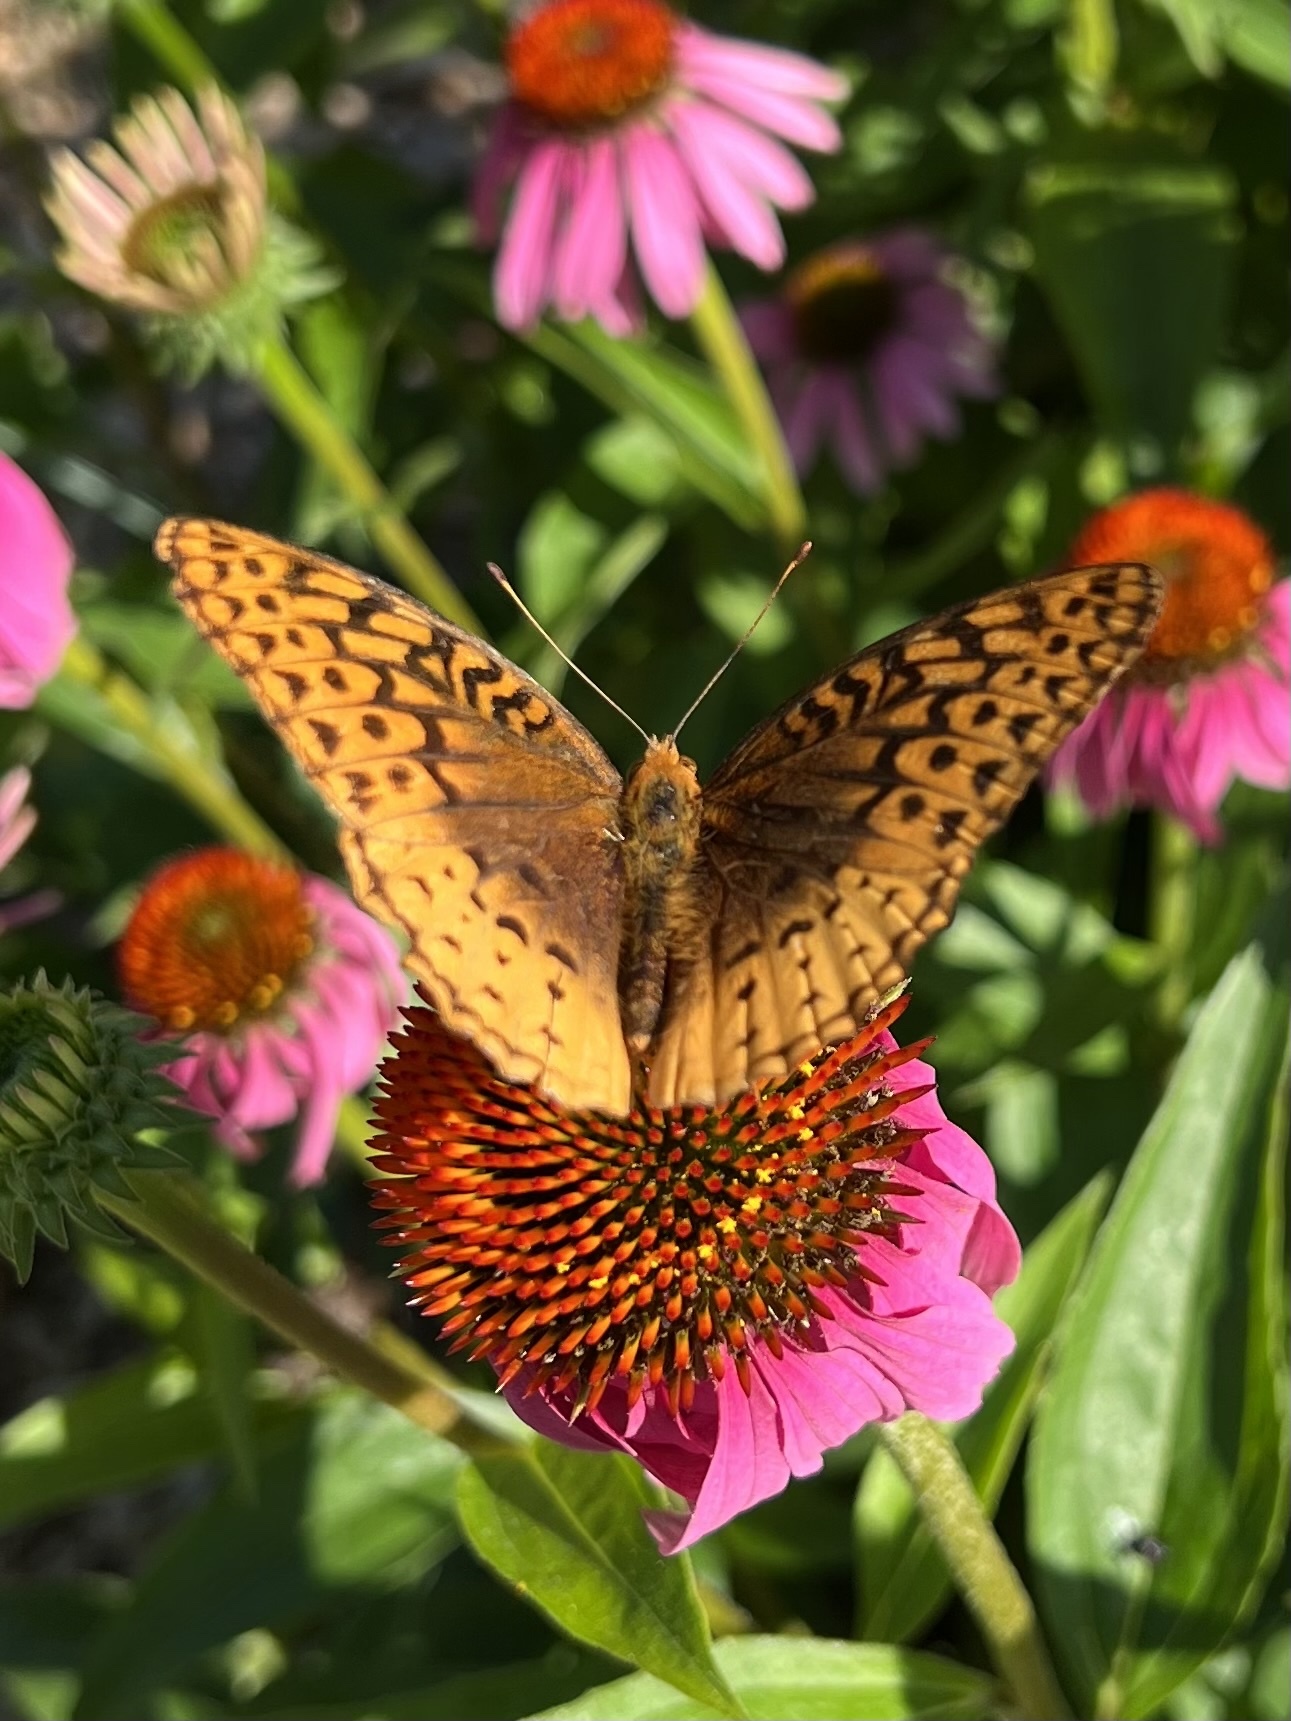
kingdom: Animalia
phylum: Arthropoda
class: Insecta
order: Lepidoptera
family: Nymphalidae
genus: Speyeria
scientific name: Speyeria cybele
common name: Great spangled fritillary
